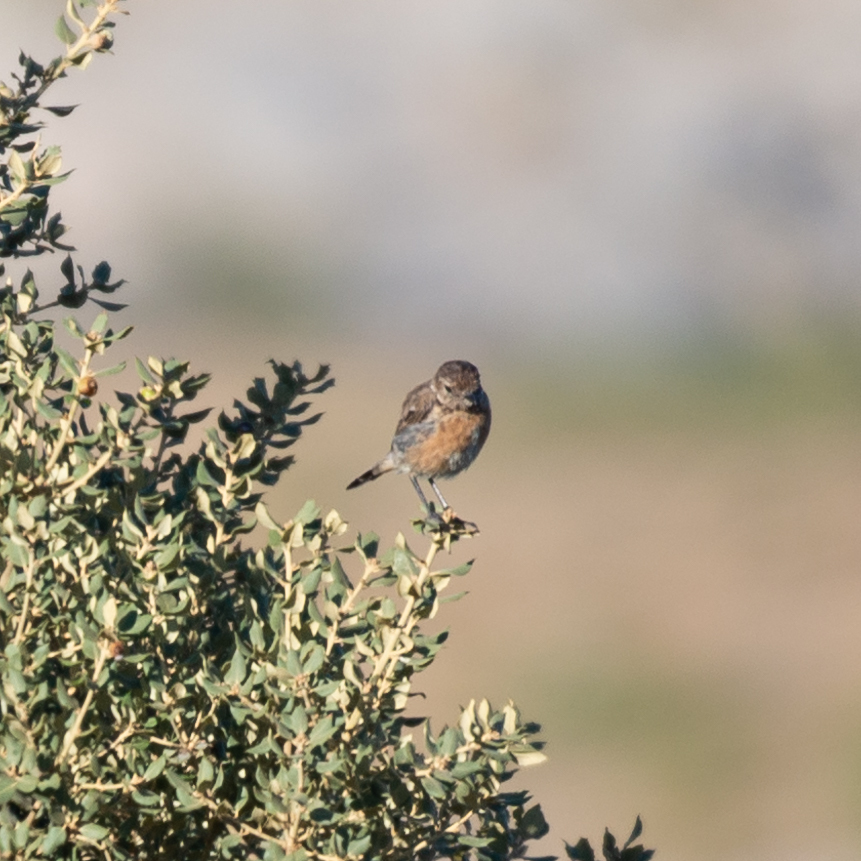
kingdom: Animalia
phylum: Chordata
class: Aves
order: Passeriformes
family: Muscicapidae
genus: Saxicola
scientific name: Saxicola rubicola
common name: European stonechat
